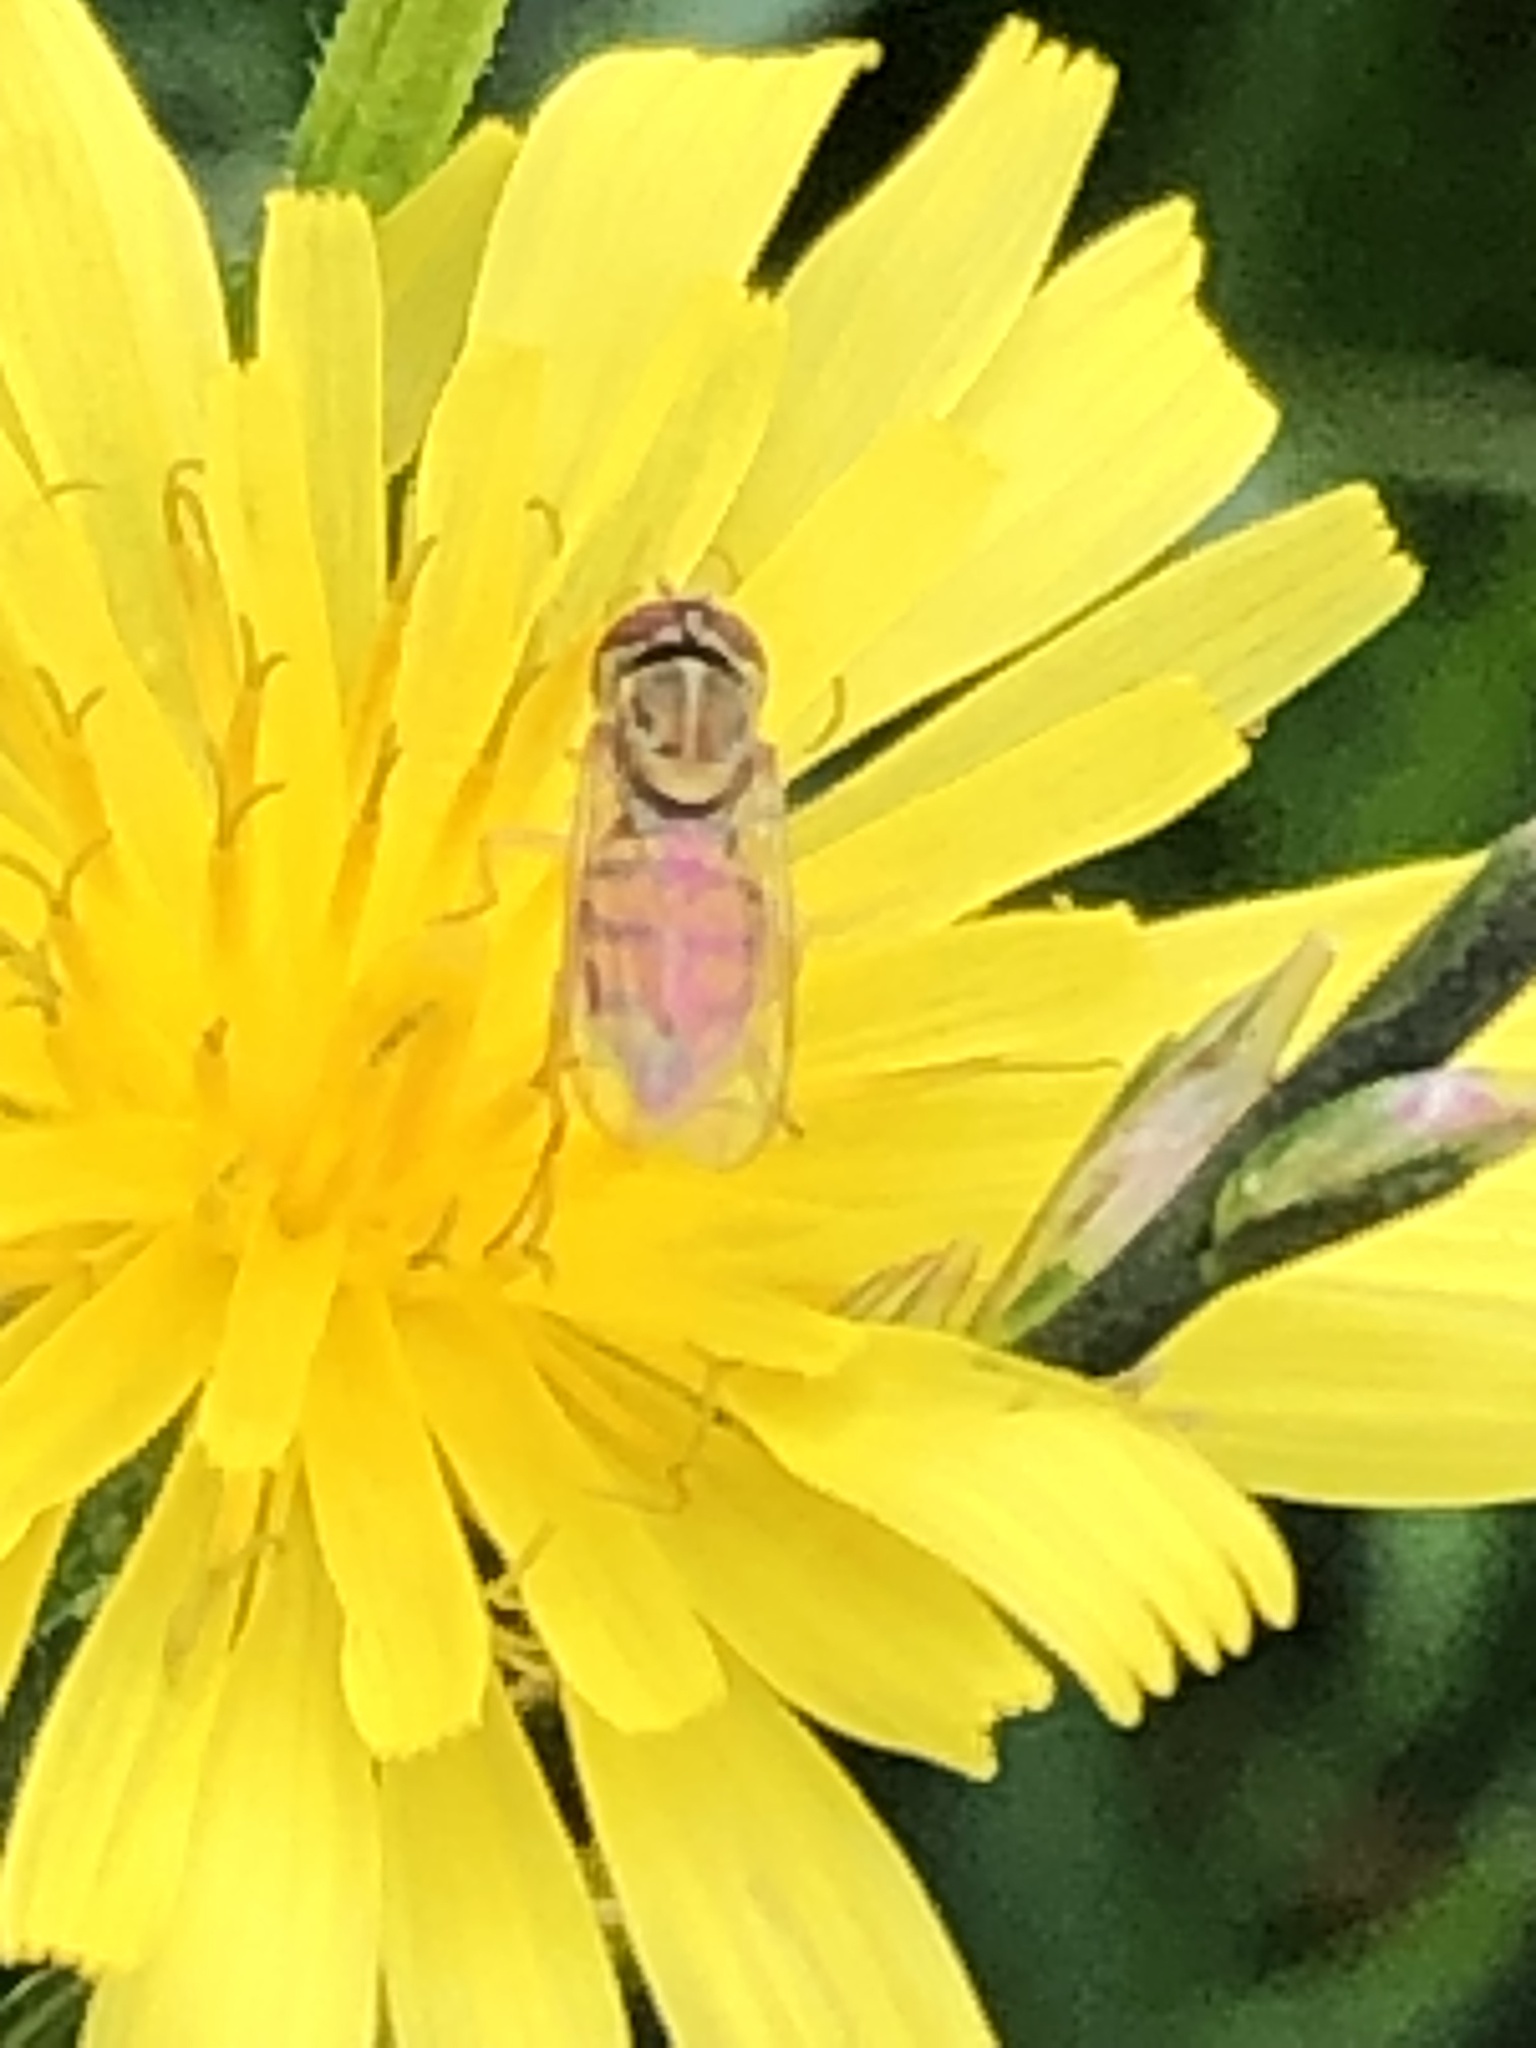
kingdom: Animalia
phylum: Arthropoda
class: Insecta
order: Diptera
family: Syrphidae
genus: Toxomerus
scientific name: Toxomerus marginatus
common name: Syrphid fly
